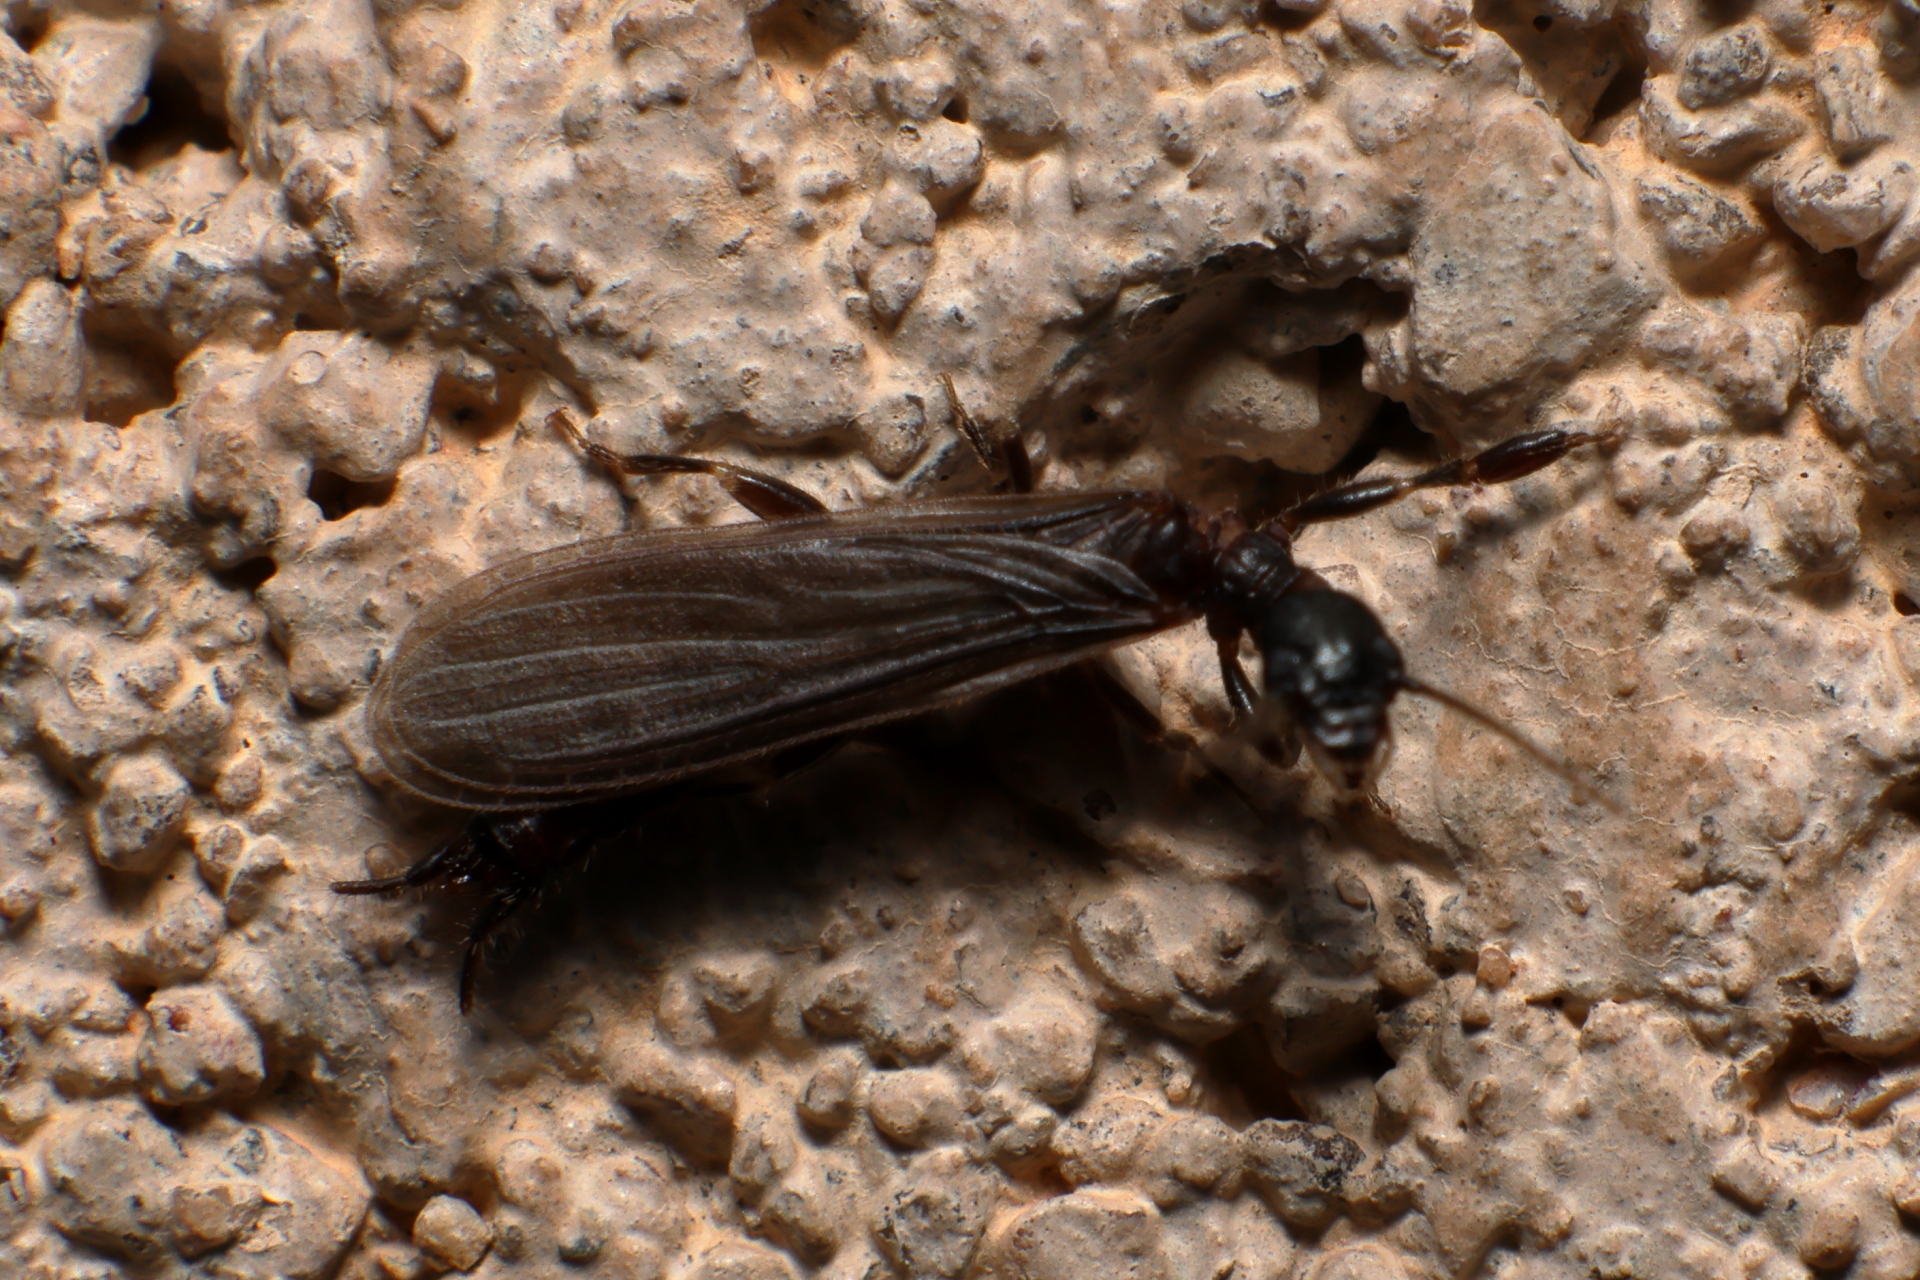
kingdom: Animalia
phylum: Arthropoda
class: Insecta
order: Embioptera
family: Oligotomidae
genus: Oligotoma
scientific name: Oligotoma nigra
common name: Black webspinner
